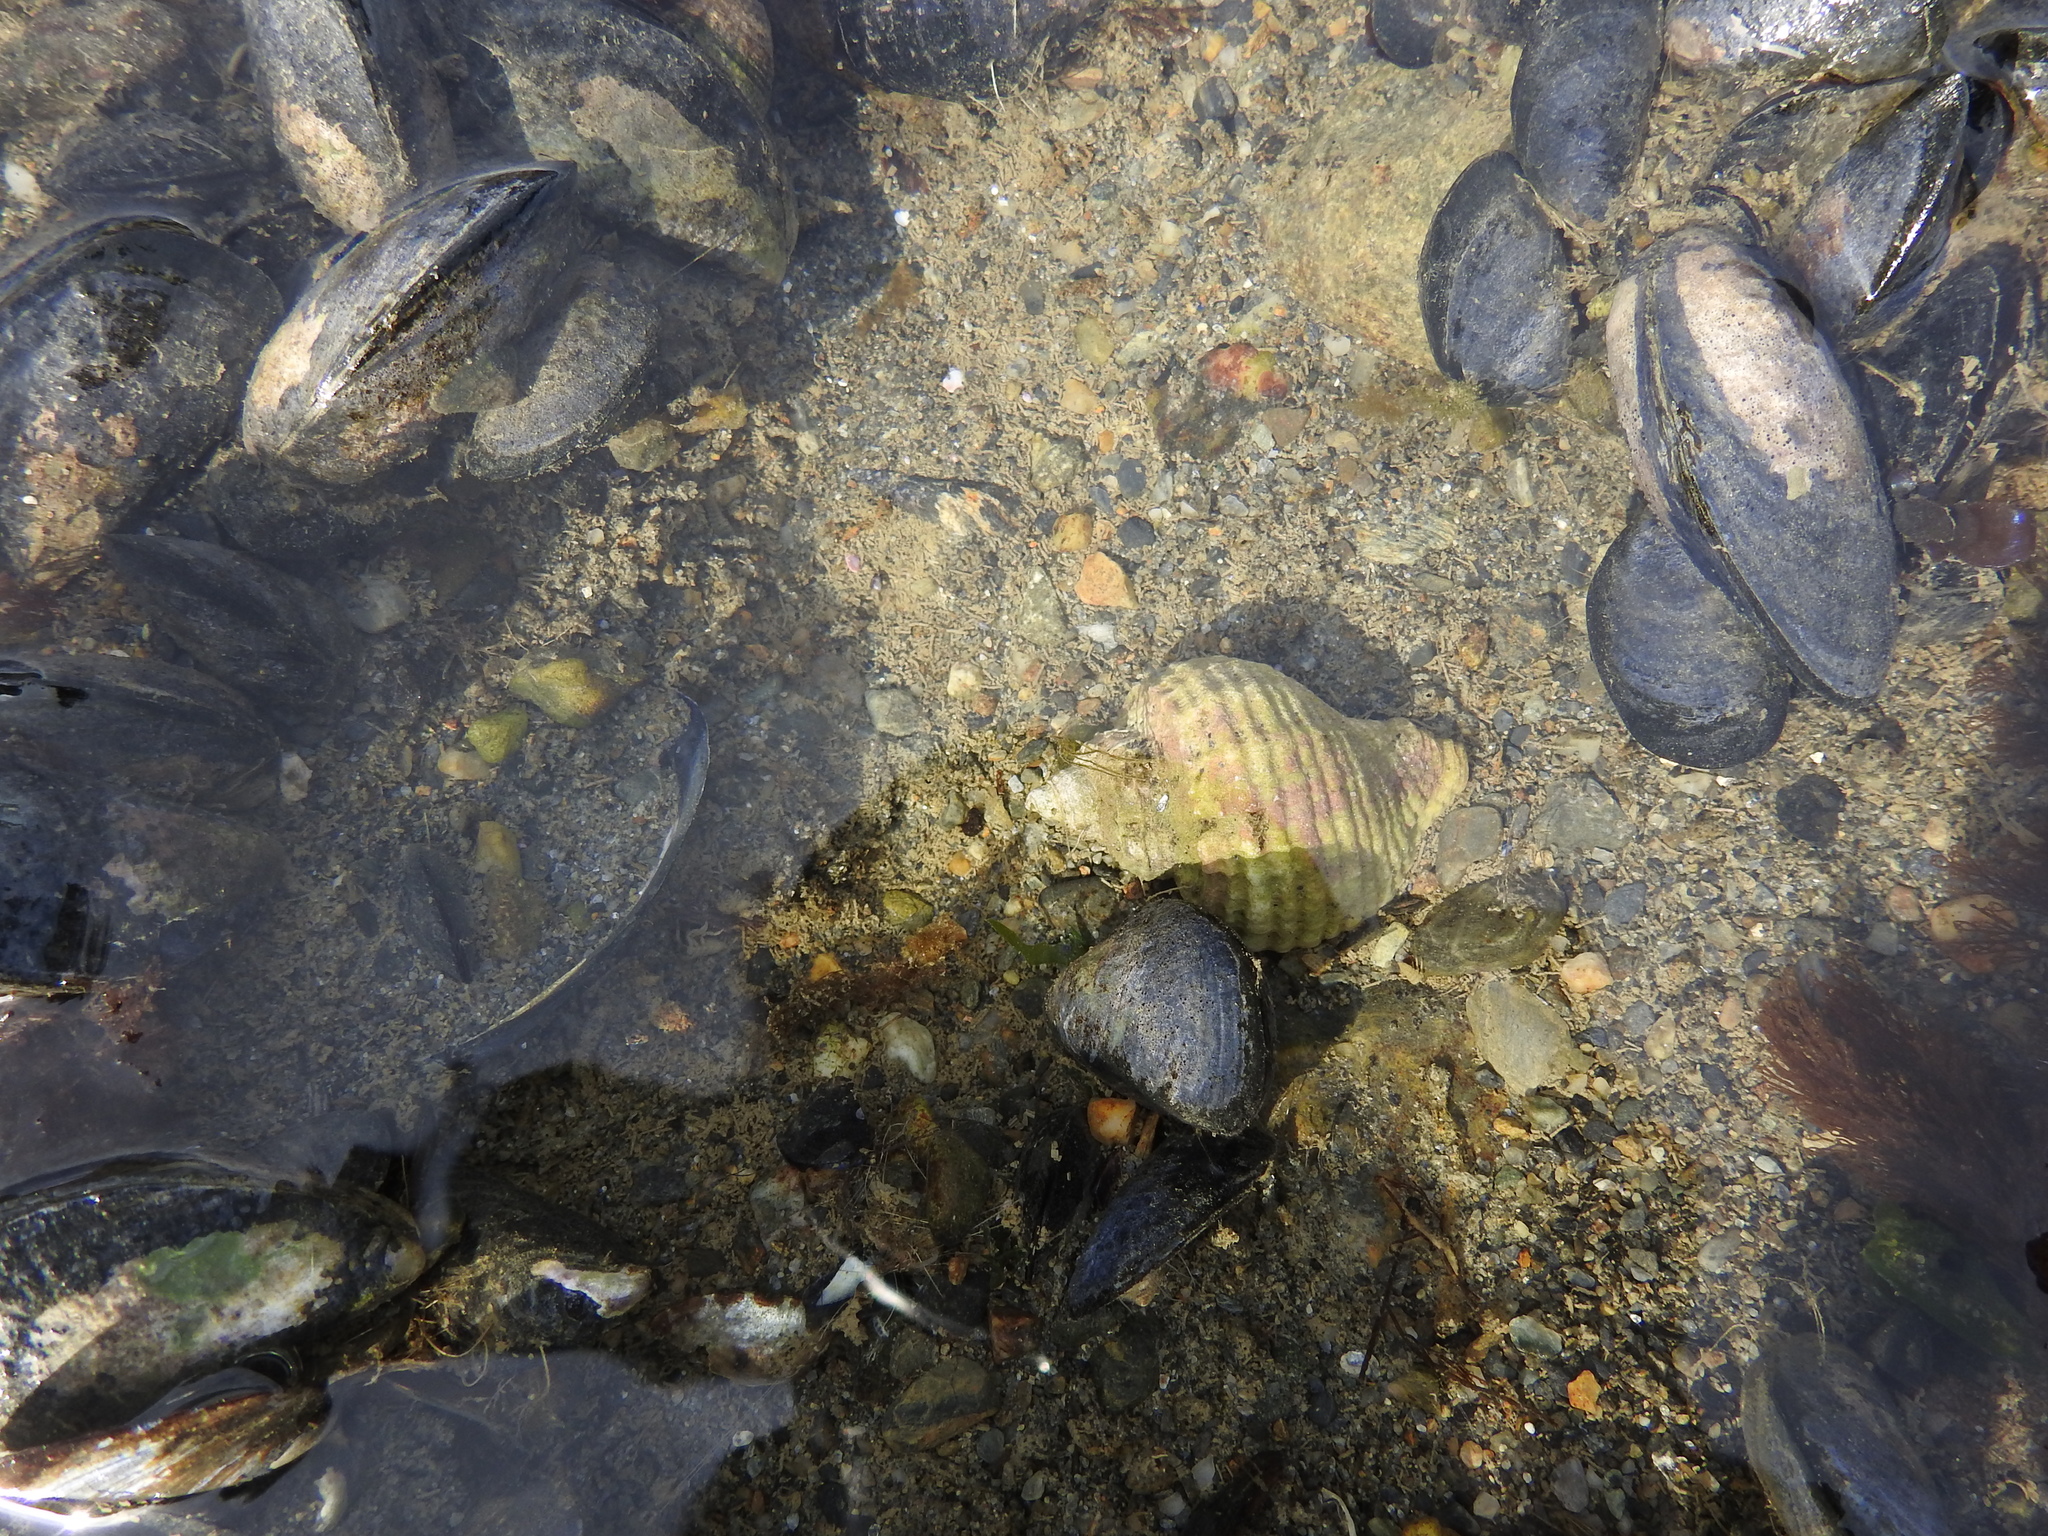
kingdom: Animalia
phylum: Mollusca
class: Gastropoda
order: Neogastropoda
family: Muricidae
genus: Trophon
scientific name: Trophon geversianus
